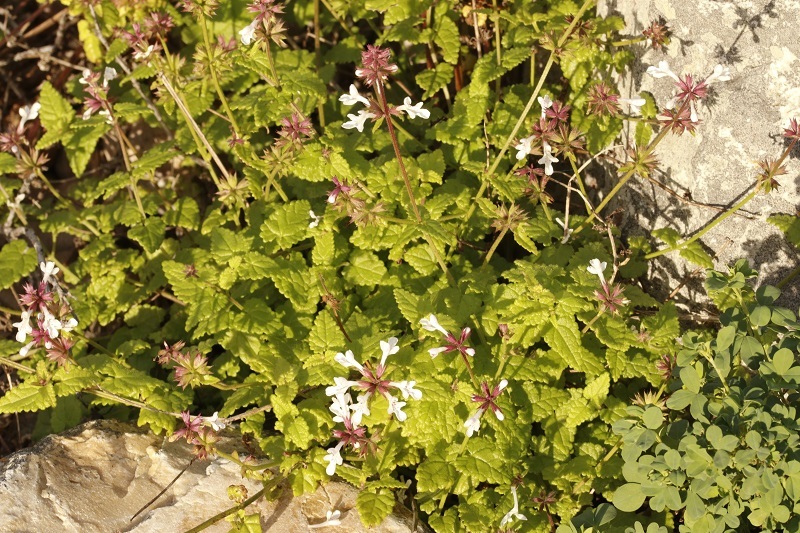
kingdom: Plantae
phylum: Tracheophyta
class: Magnoliopsida
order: Lamiales
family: Lamiaceae
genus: Stachys
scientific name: Stachys aethiopica
